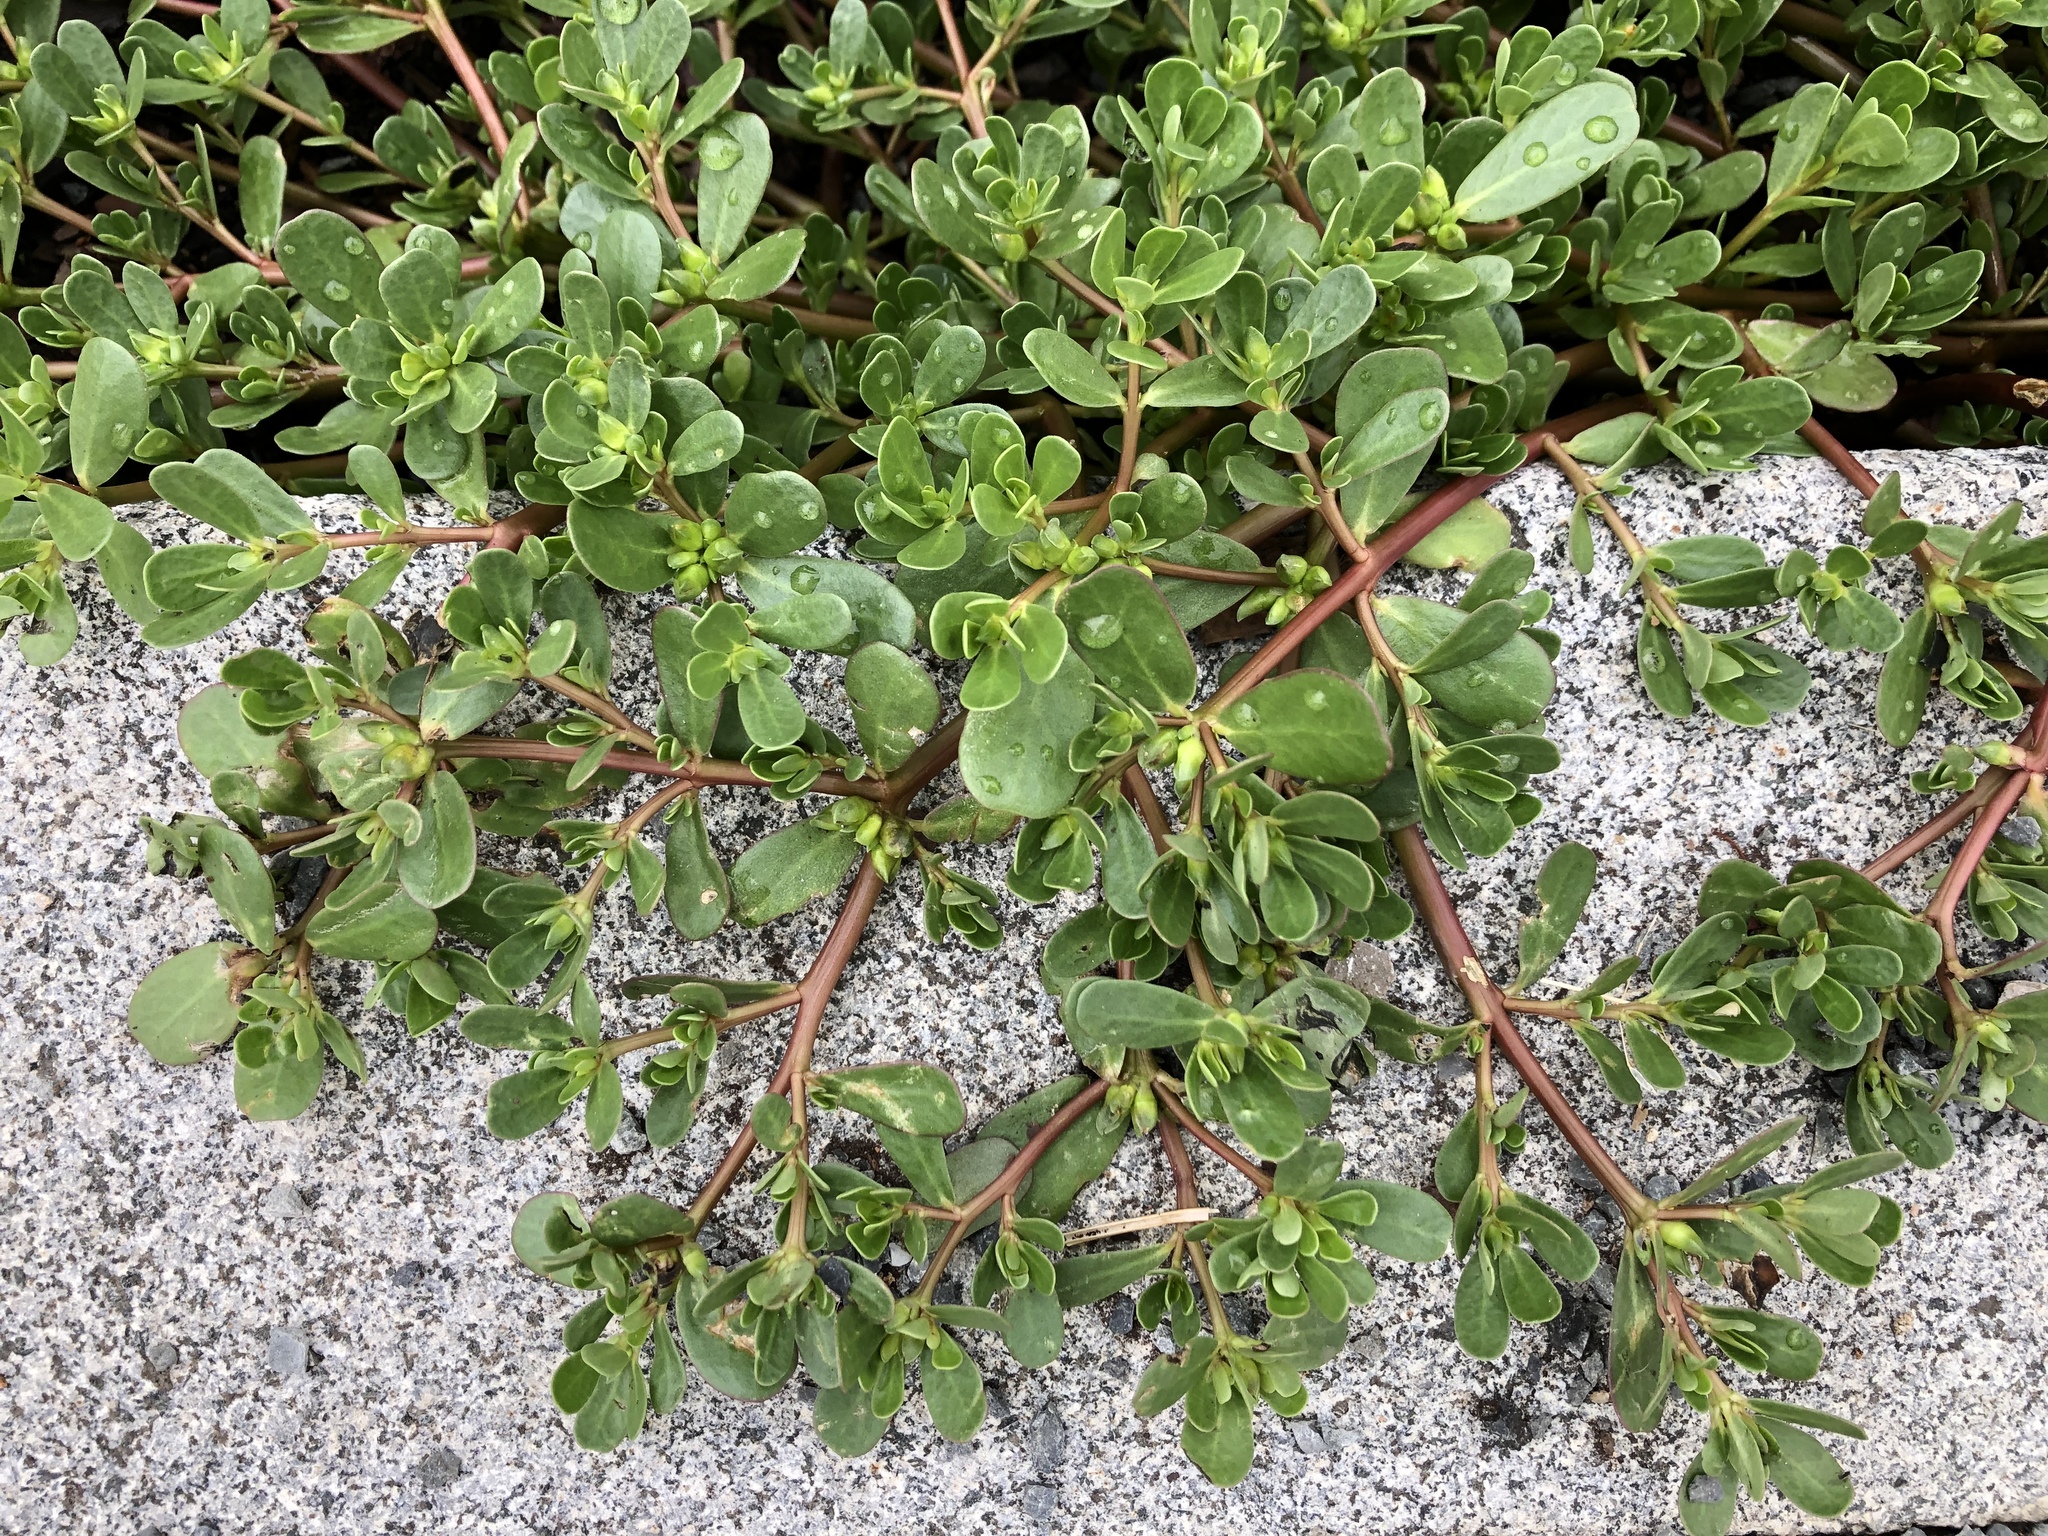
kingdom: Plantae
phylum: Tracheophyta
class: Magnoliopsida
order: Caryophyllales
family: Portulacaceae
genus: Portulaca
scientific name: Portulaca oleracea
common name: Common purslane
